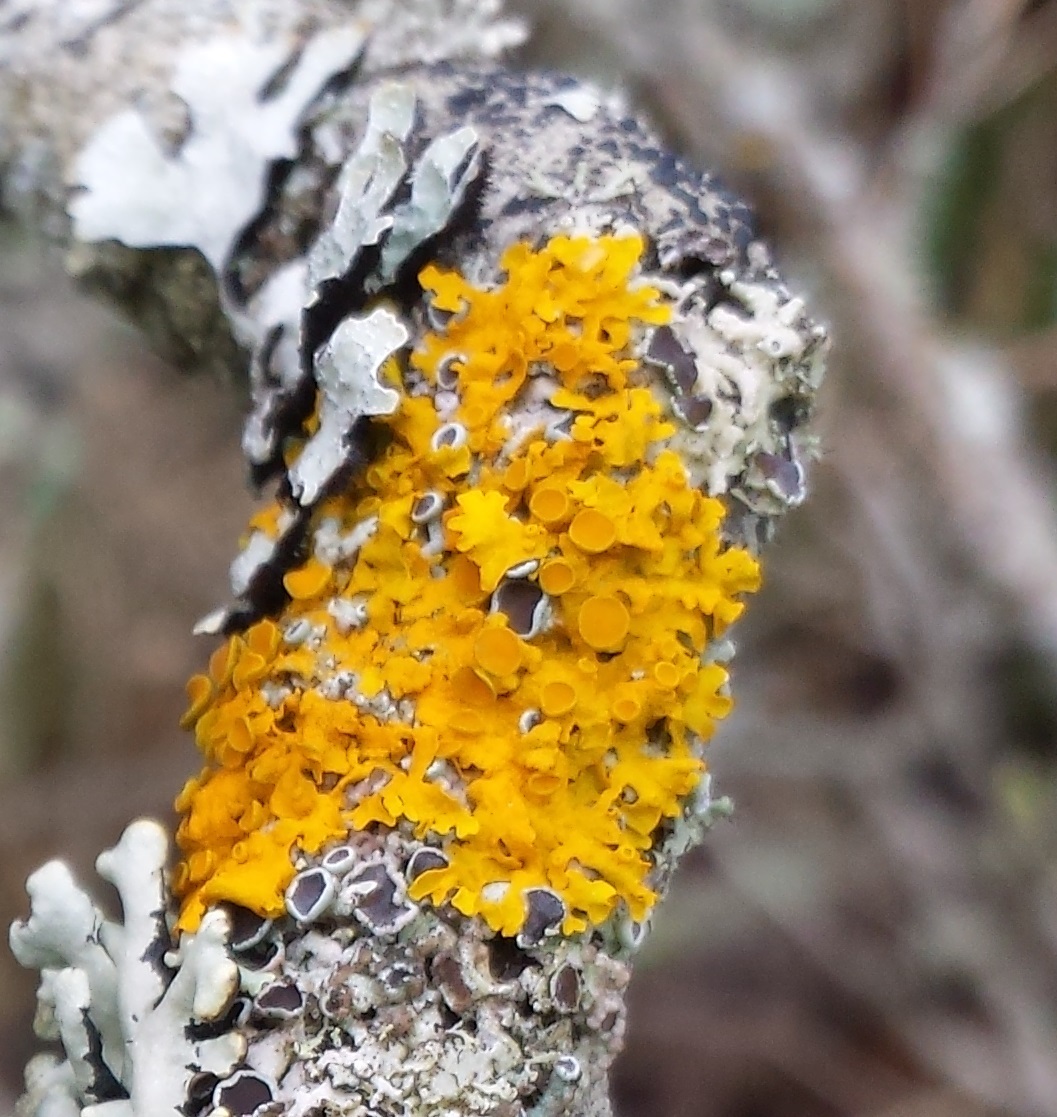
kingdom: Fungi
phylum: Ascomycota
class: Lecanoromycetes
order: Teloschistales
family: Teloschistaceae
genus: Xanthoria
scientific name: Xanthoria parietina
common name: Common orange lichen
